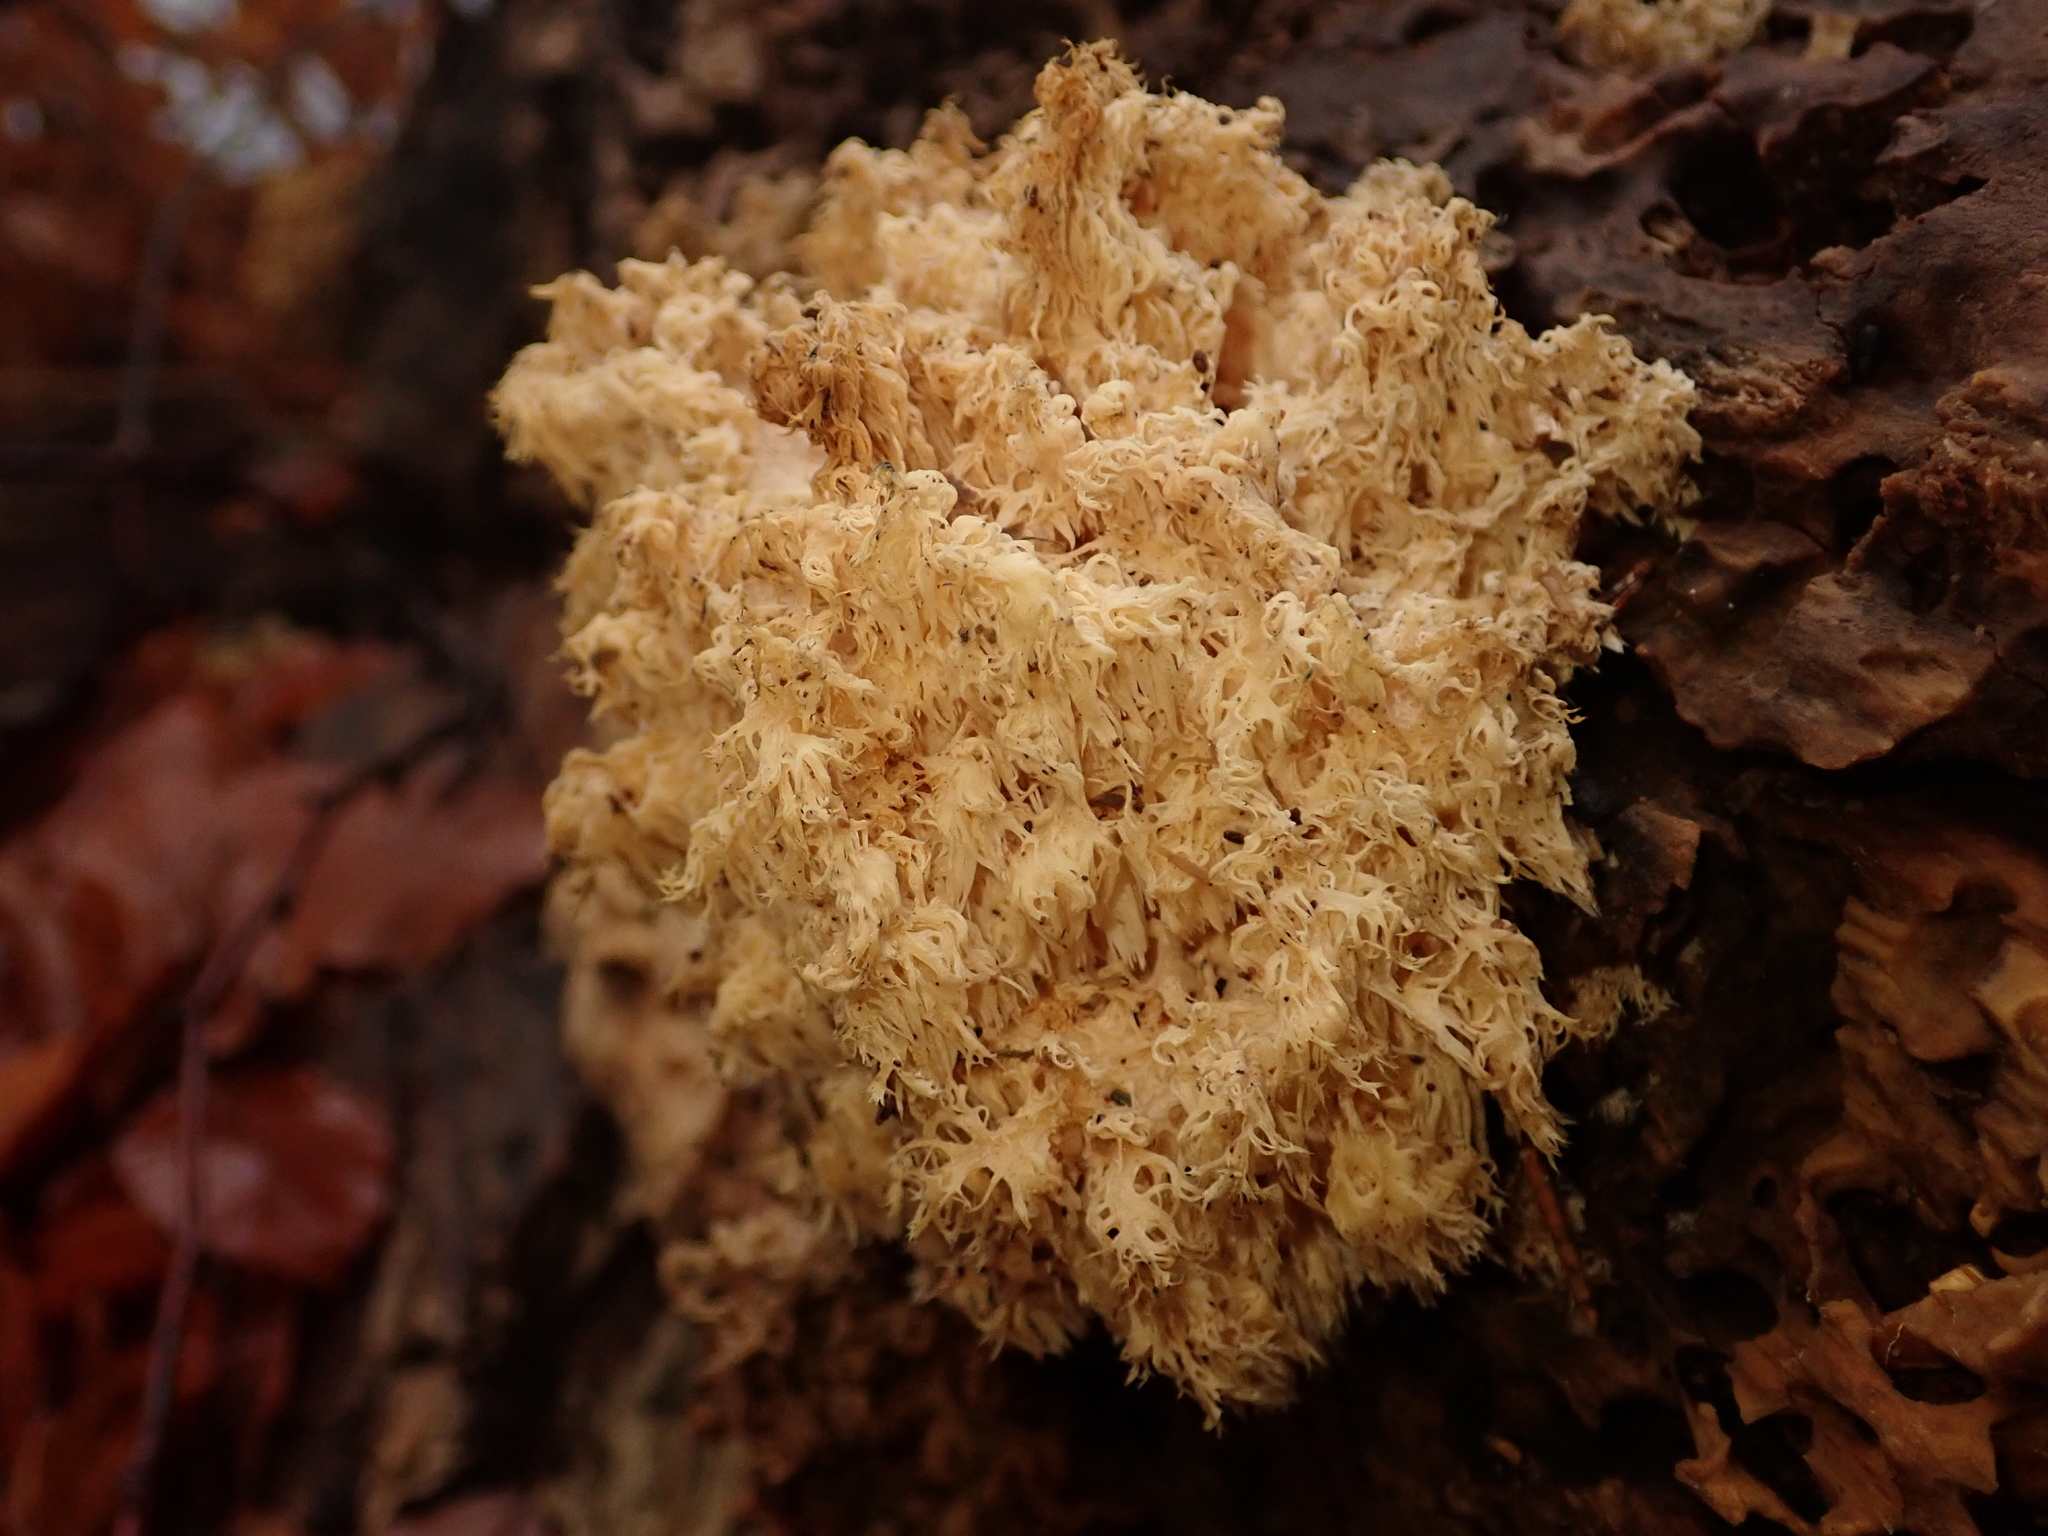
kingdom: Fungi
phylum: Basidiomycota
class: Agaricomycetes
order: Russulales
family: Hericiaceae
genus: Hericium
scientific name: Hericium coralloides
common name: Coral tooth
